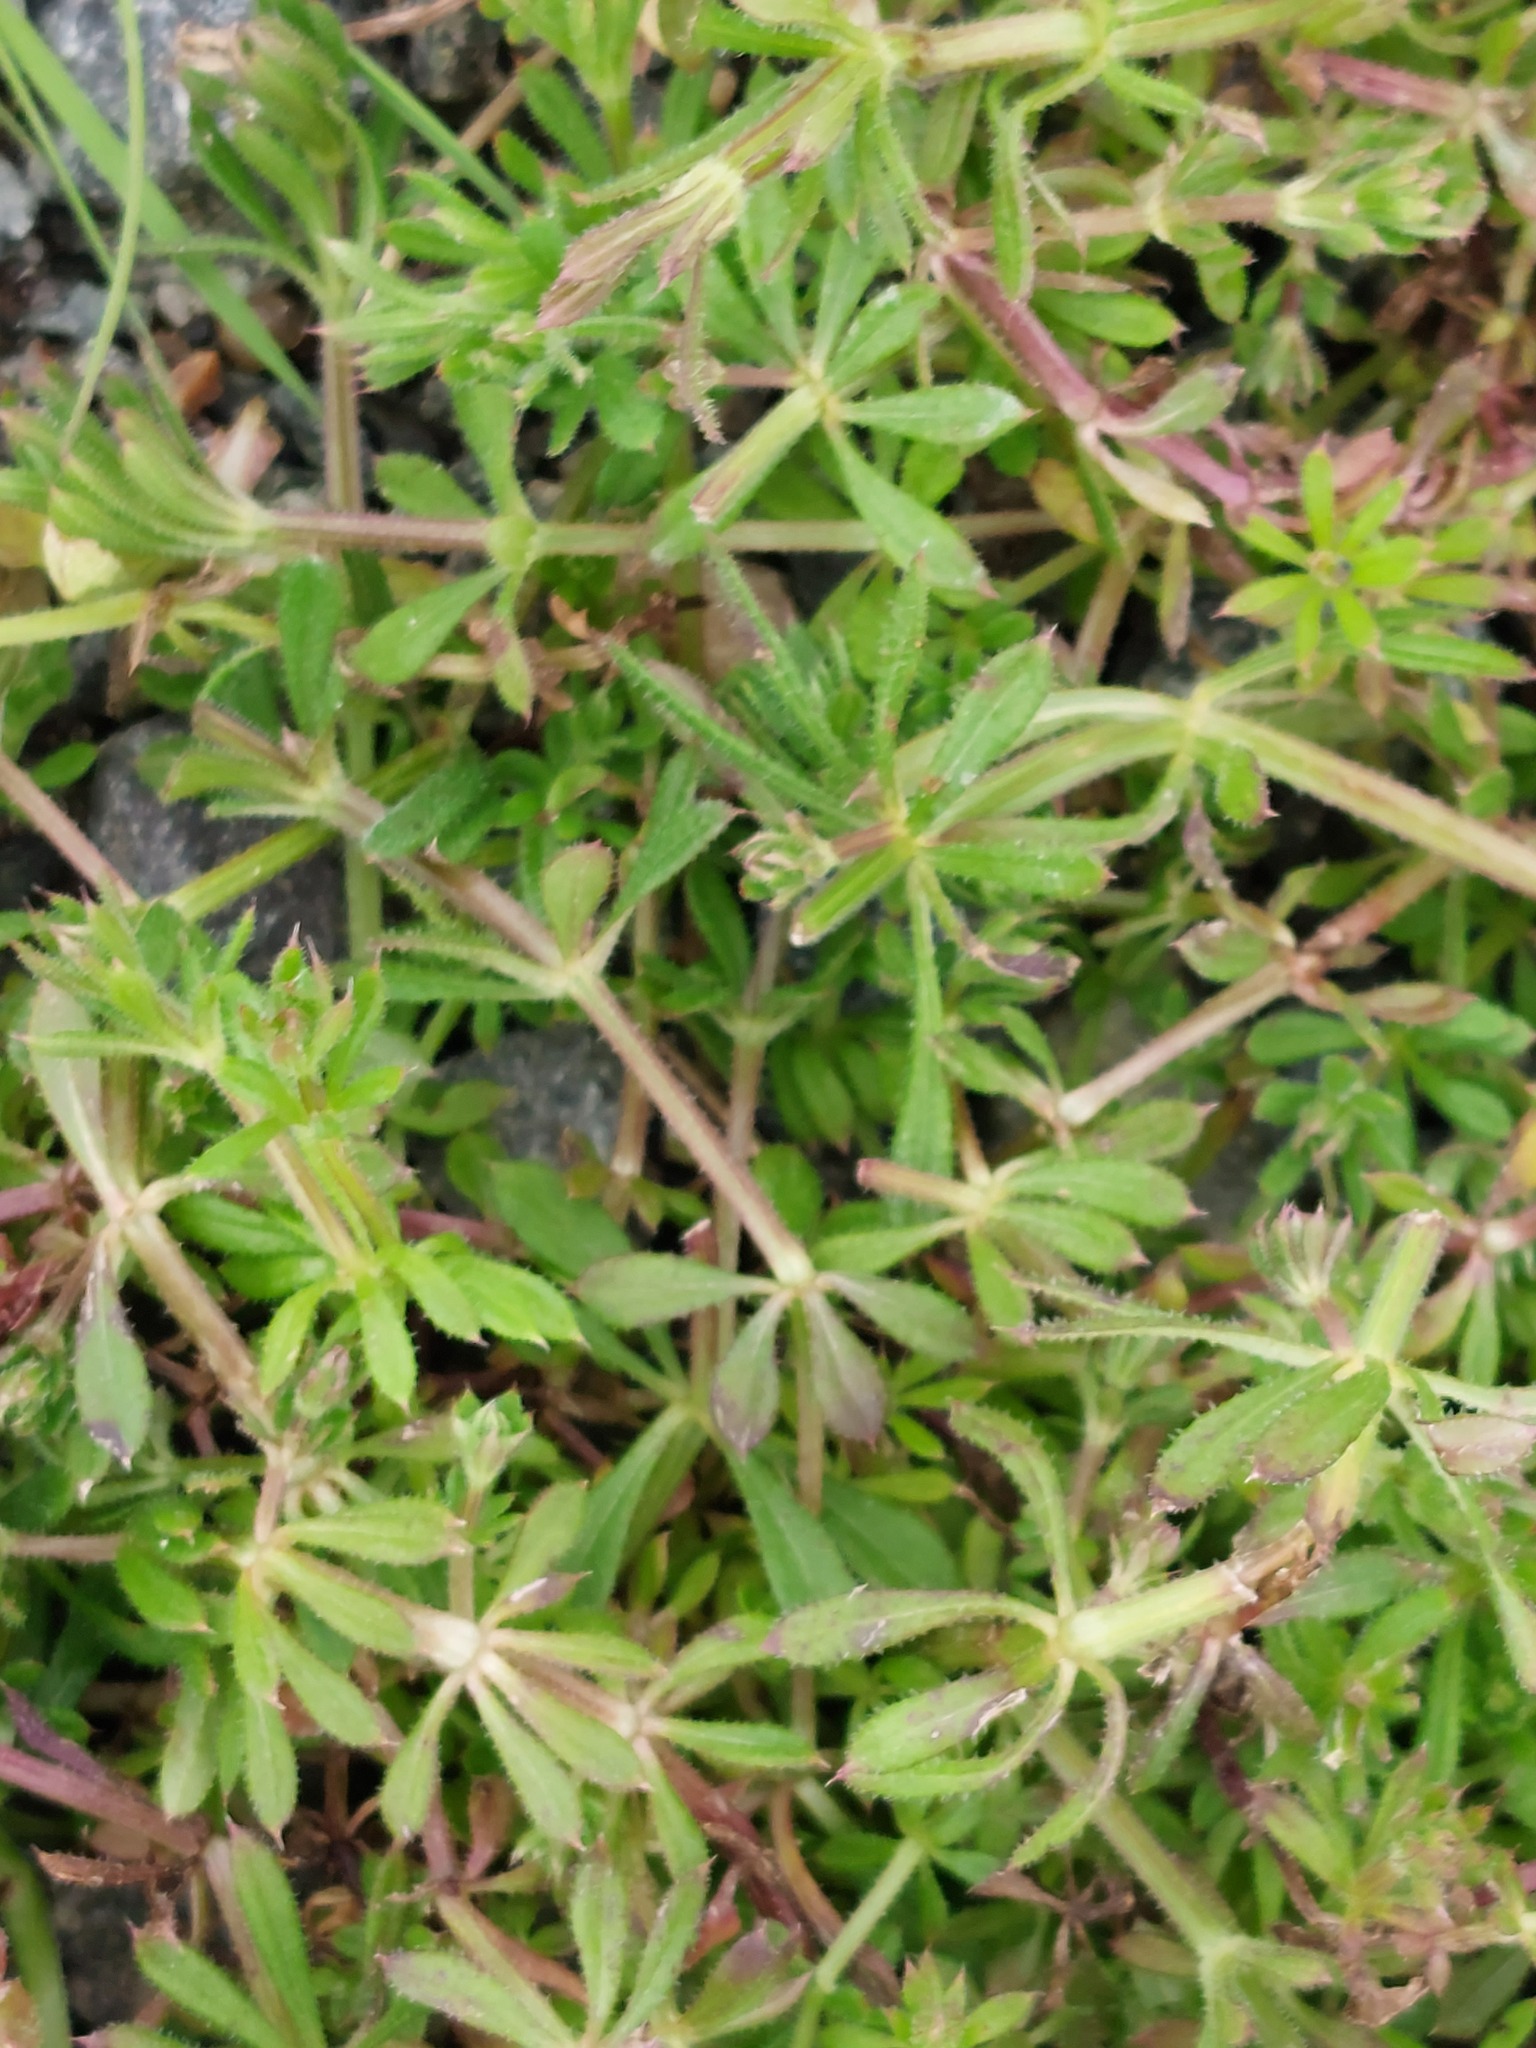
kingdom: Plantae
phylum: Tracheophyta
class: Magnoliopsida
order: Gentianales
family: Rubiaceae
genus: Galium
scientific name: Galium aparine
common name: Cleavers
